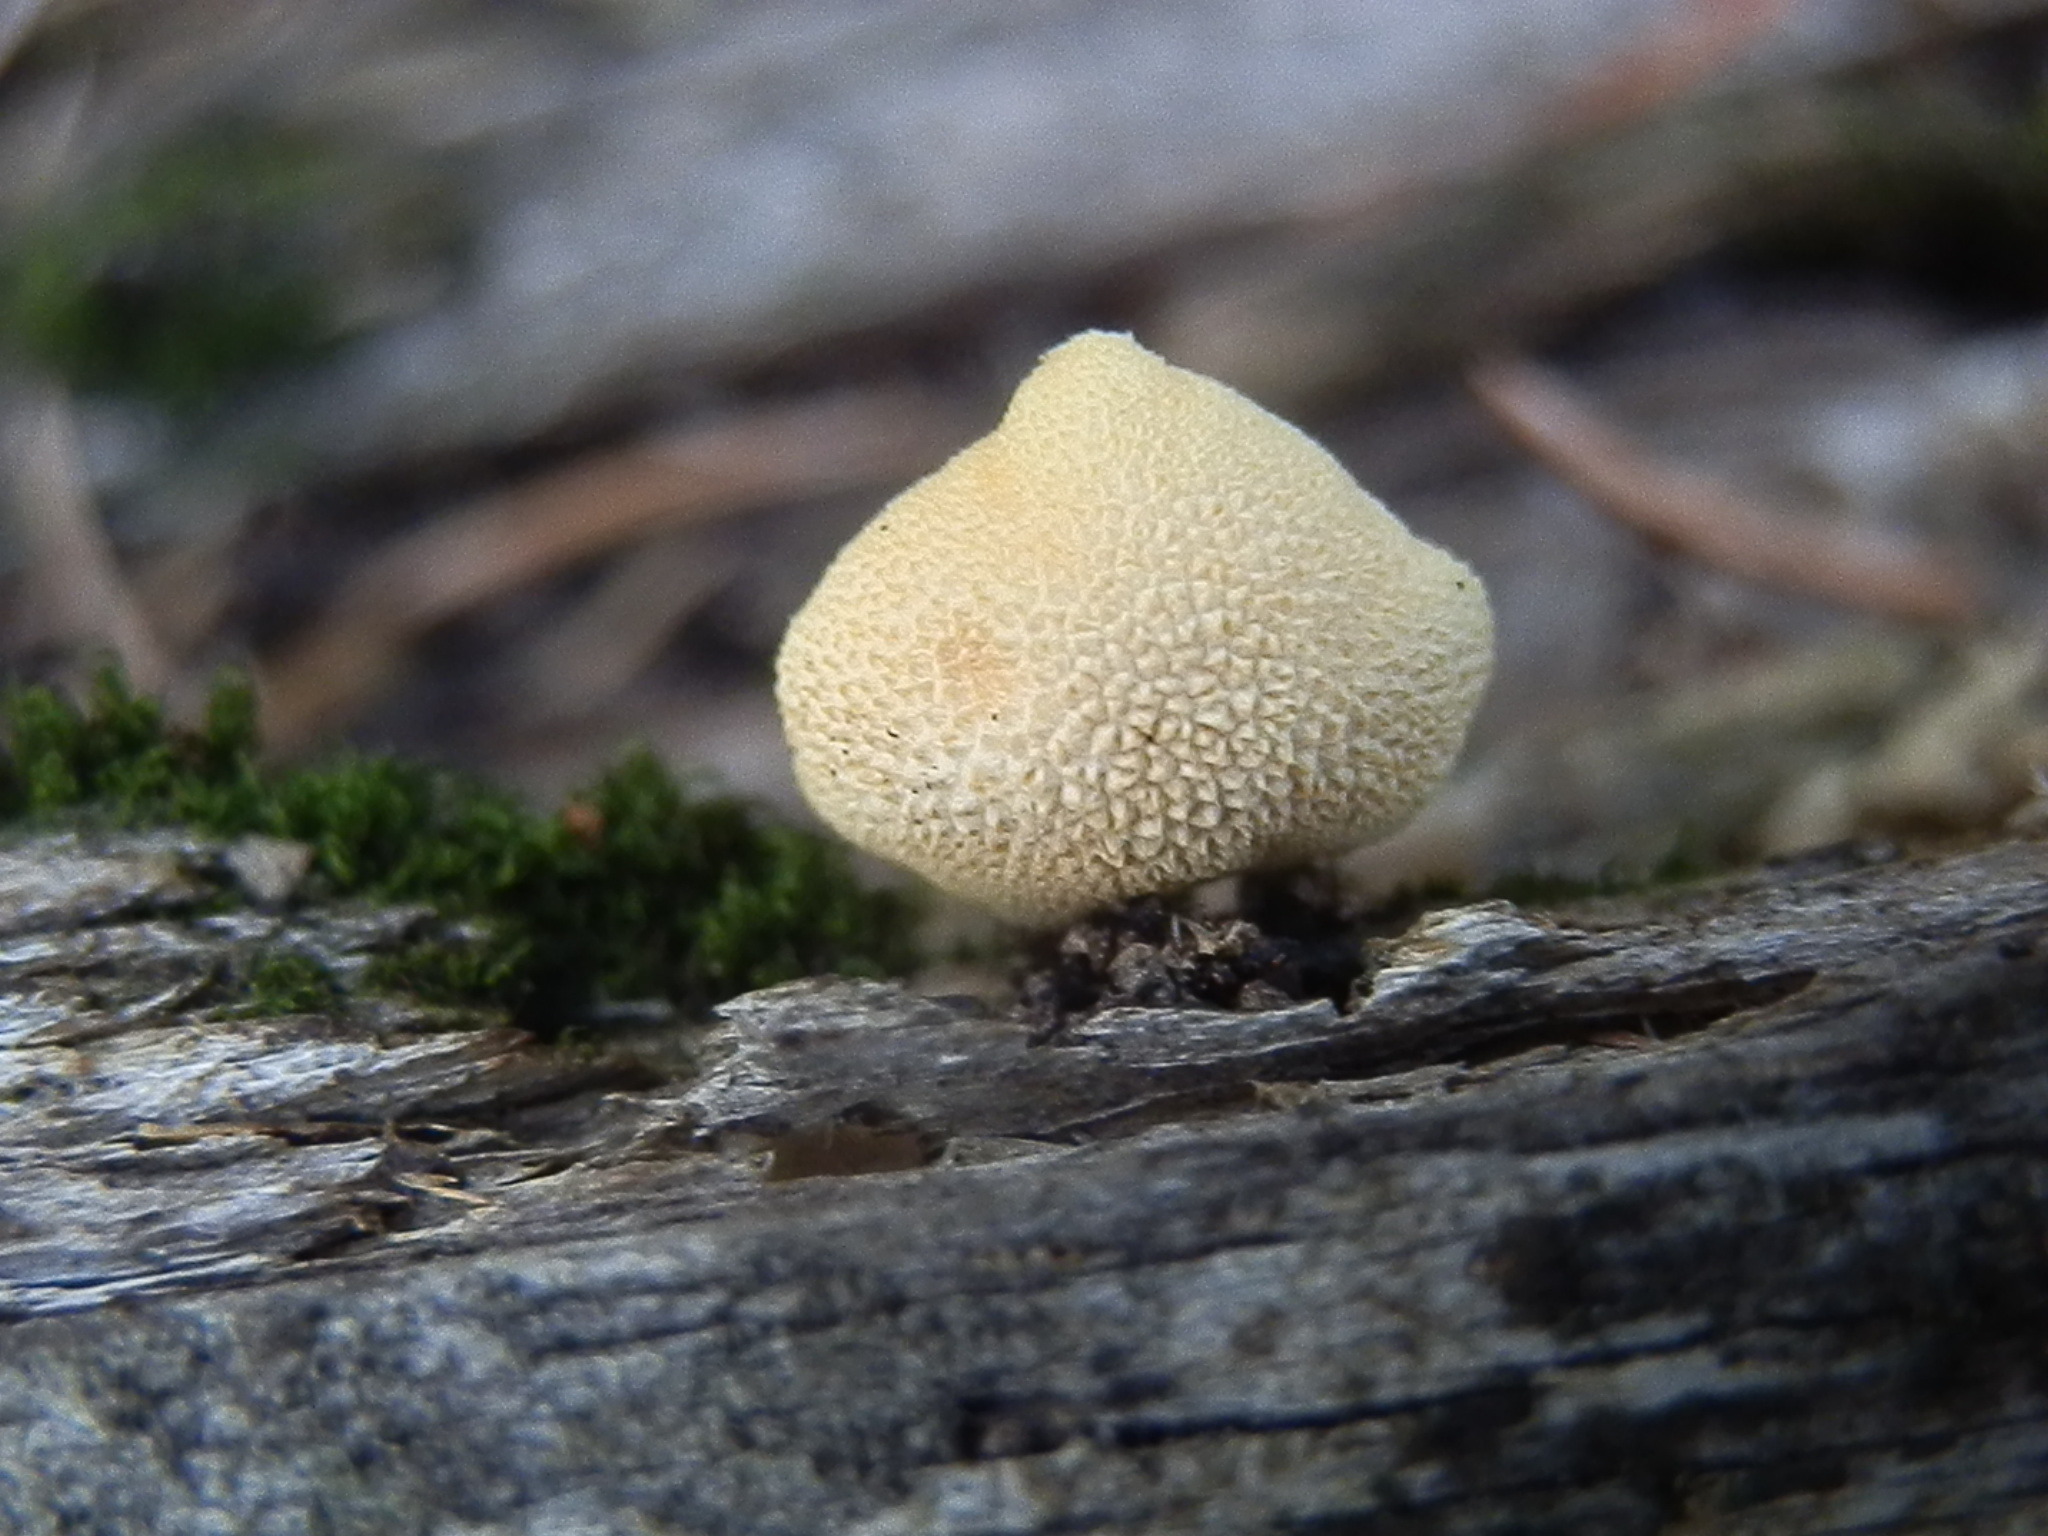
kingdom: Fungi
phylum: Basidiomycota
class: Agaricomycetes
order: Agaricales
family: Physalacriaceae
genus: Cyptotrama
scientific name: Cyptotrama chrysopepla
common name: Golden coincap
